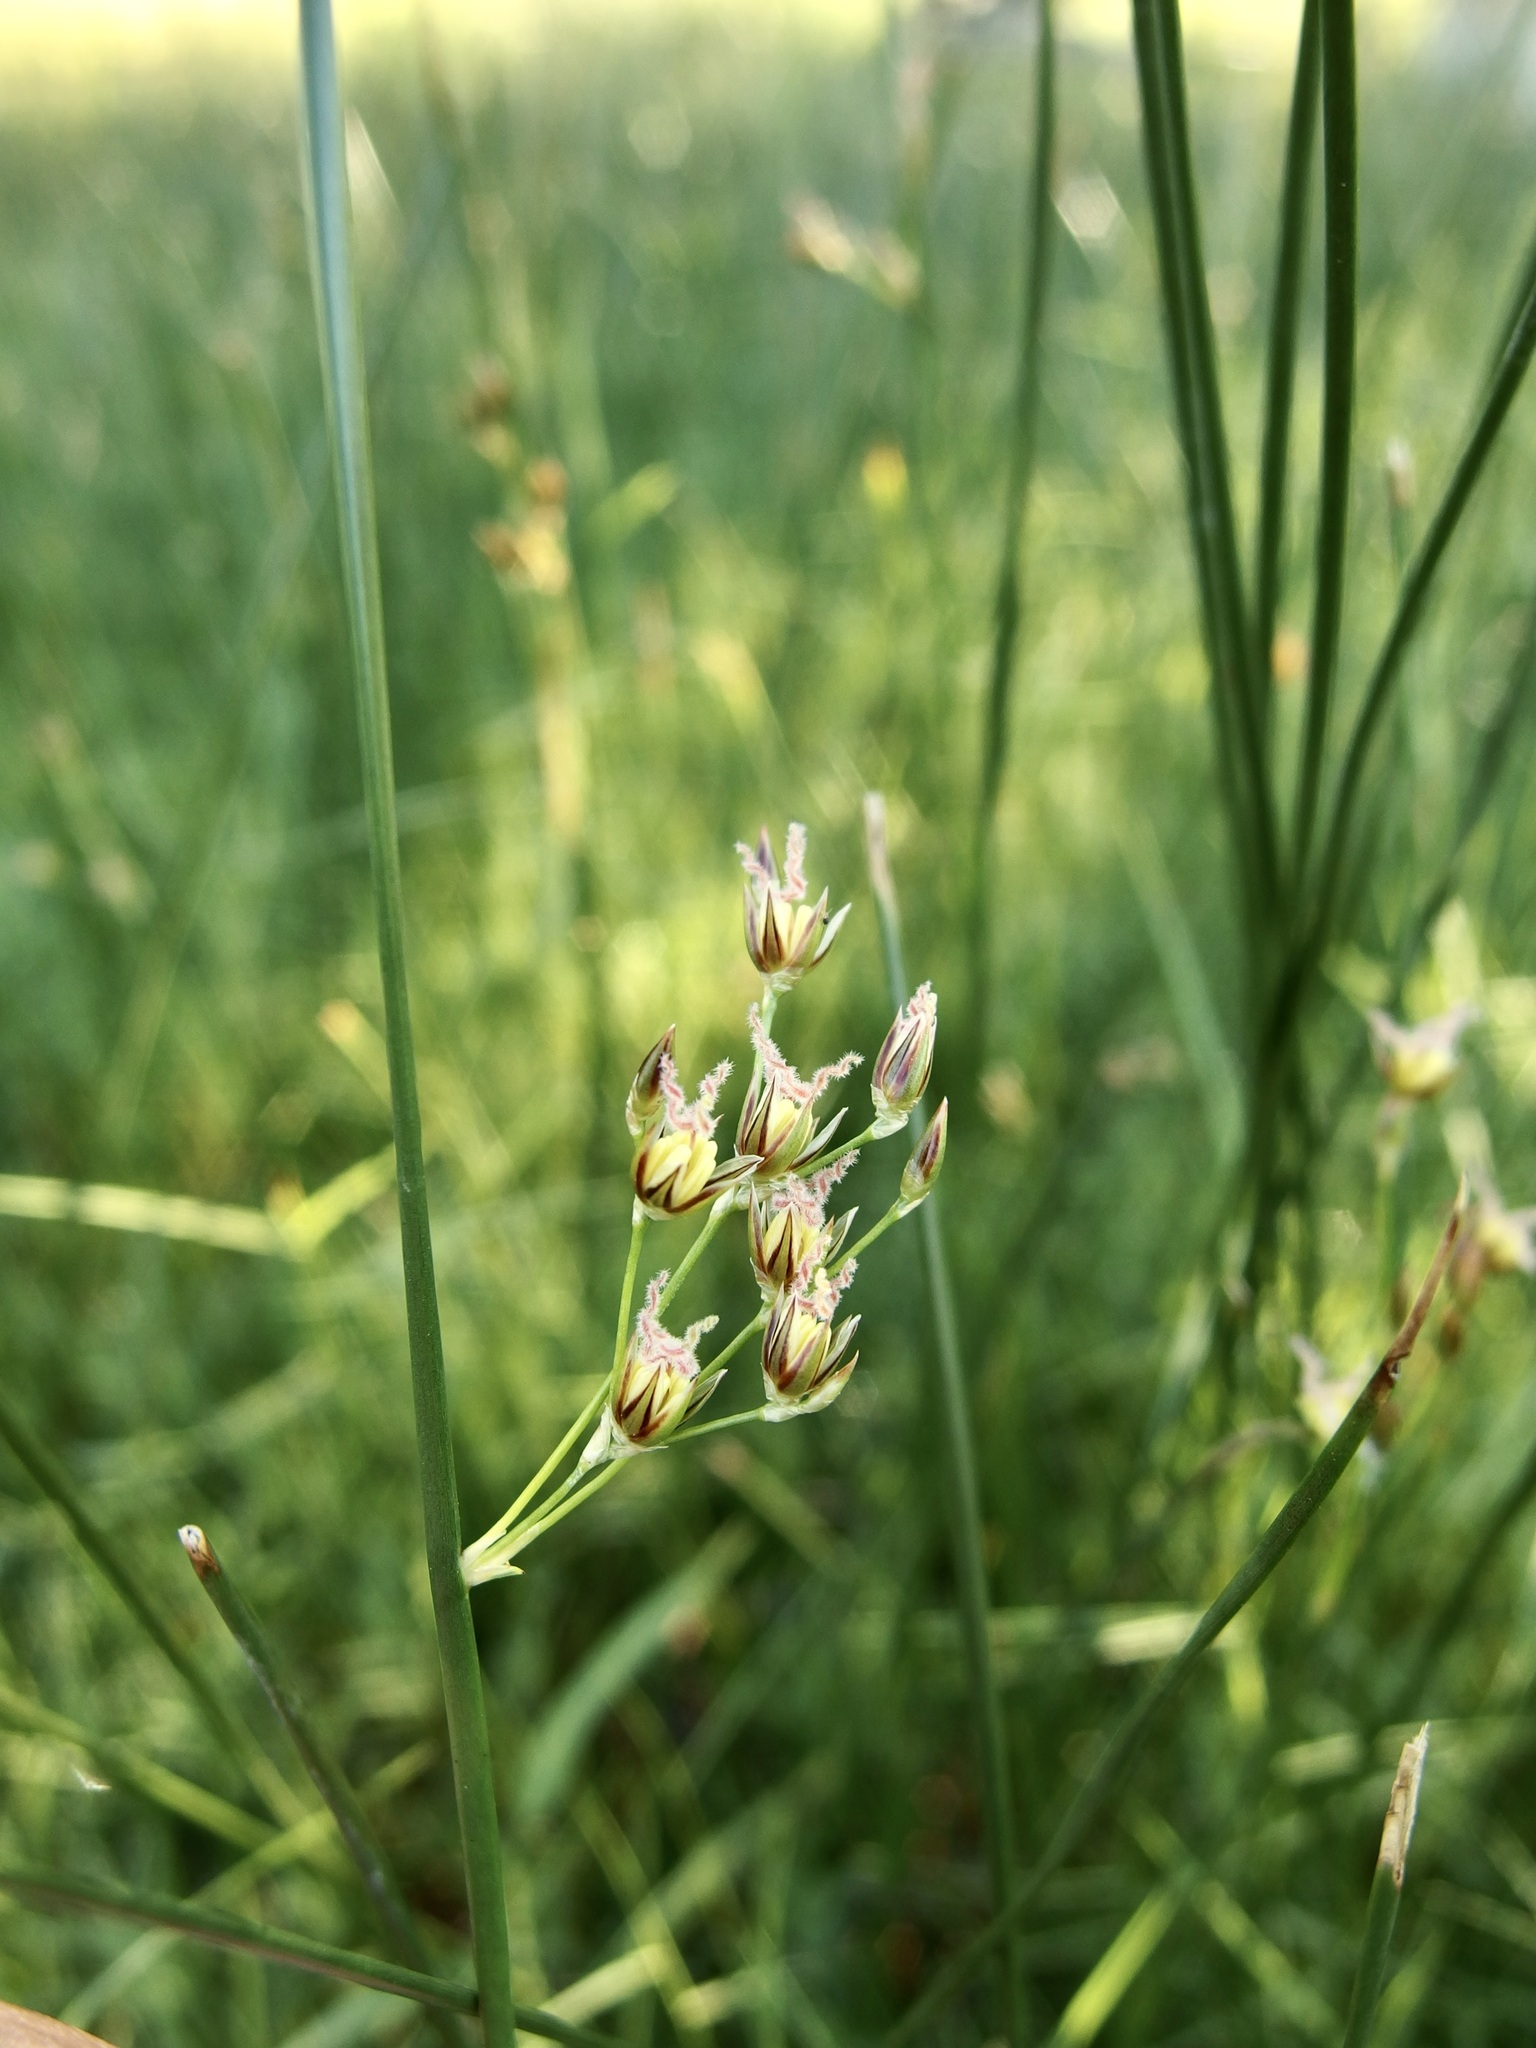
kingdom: Plantae
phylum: Tracheophyta
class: Liliopsida
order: Poales
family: Juncaceae
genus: Juncus
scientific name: Juncus balticus
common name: Baltic rush
